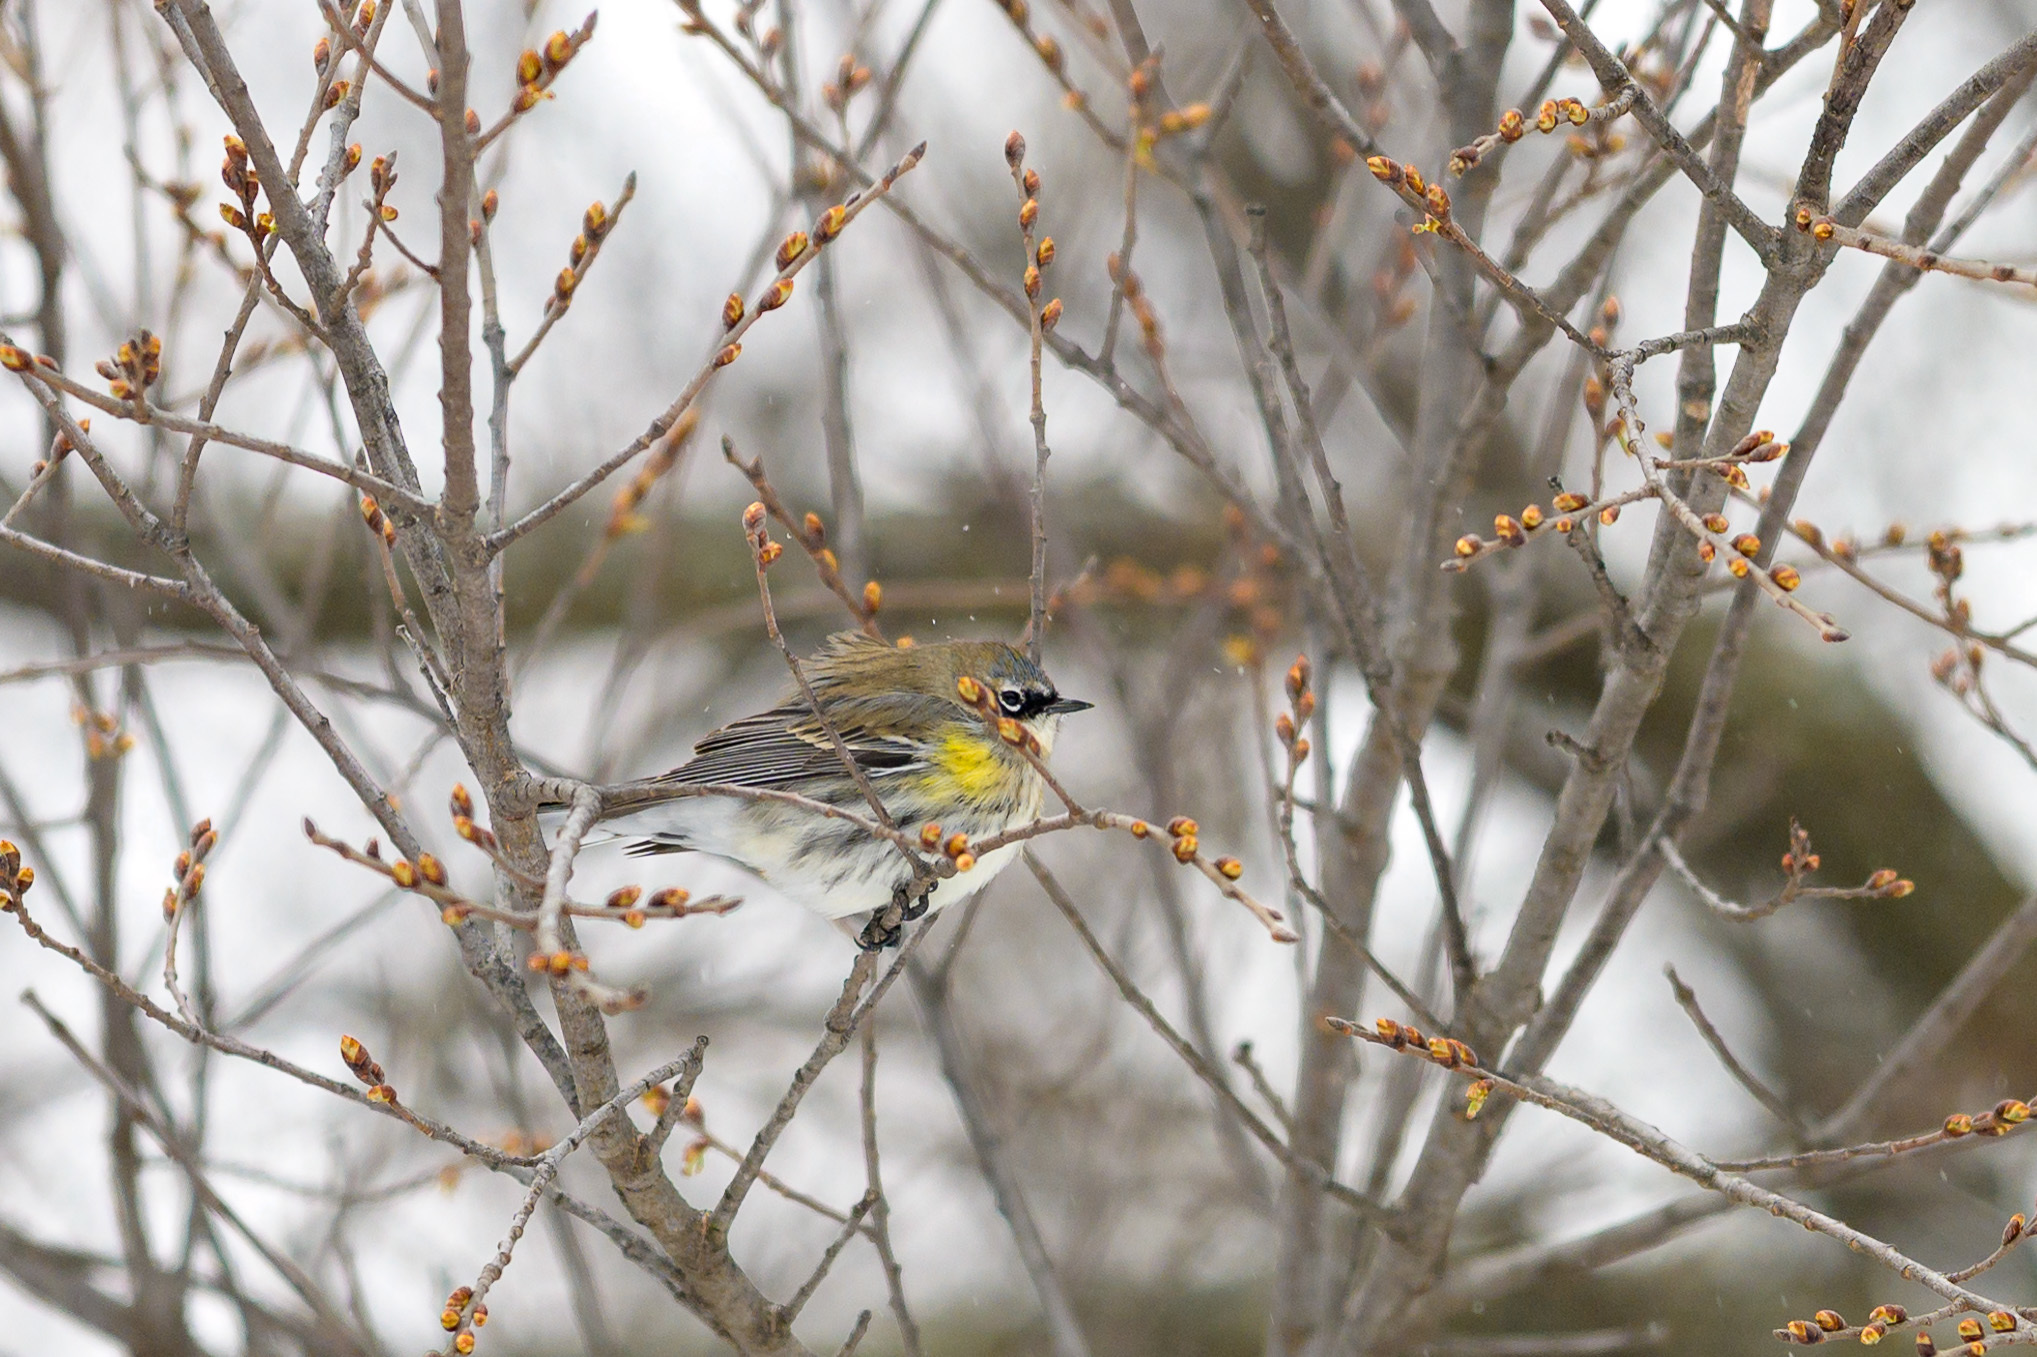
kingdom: Animalia
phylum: Chordata
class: Aves
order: Passeriformes
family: Parulidae
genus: Setophaga
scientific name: Setophaga coronata
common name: Myrtle warbler
